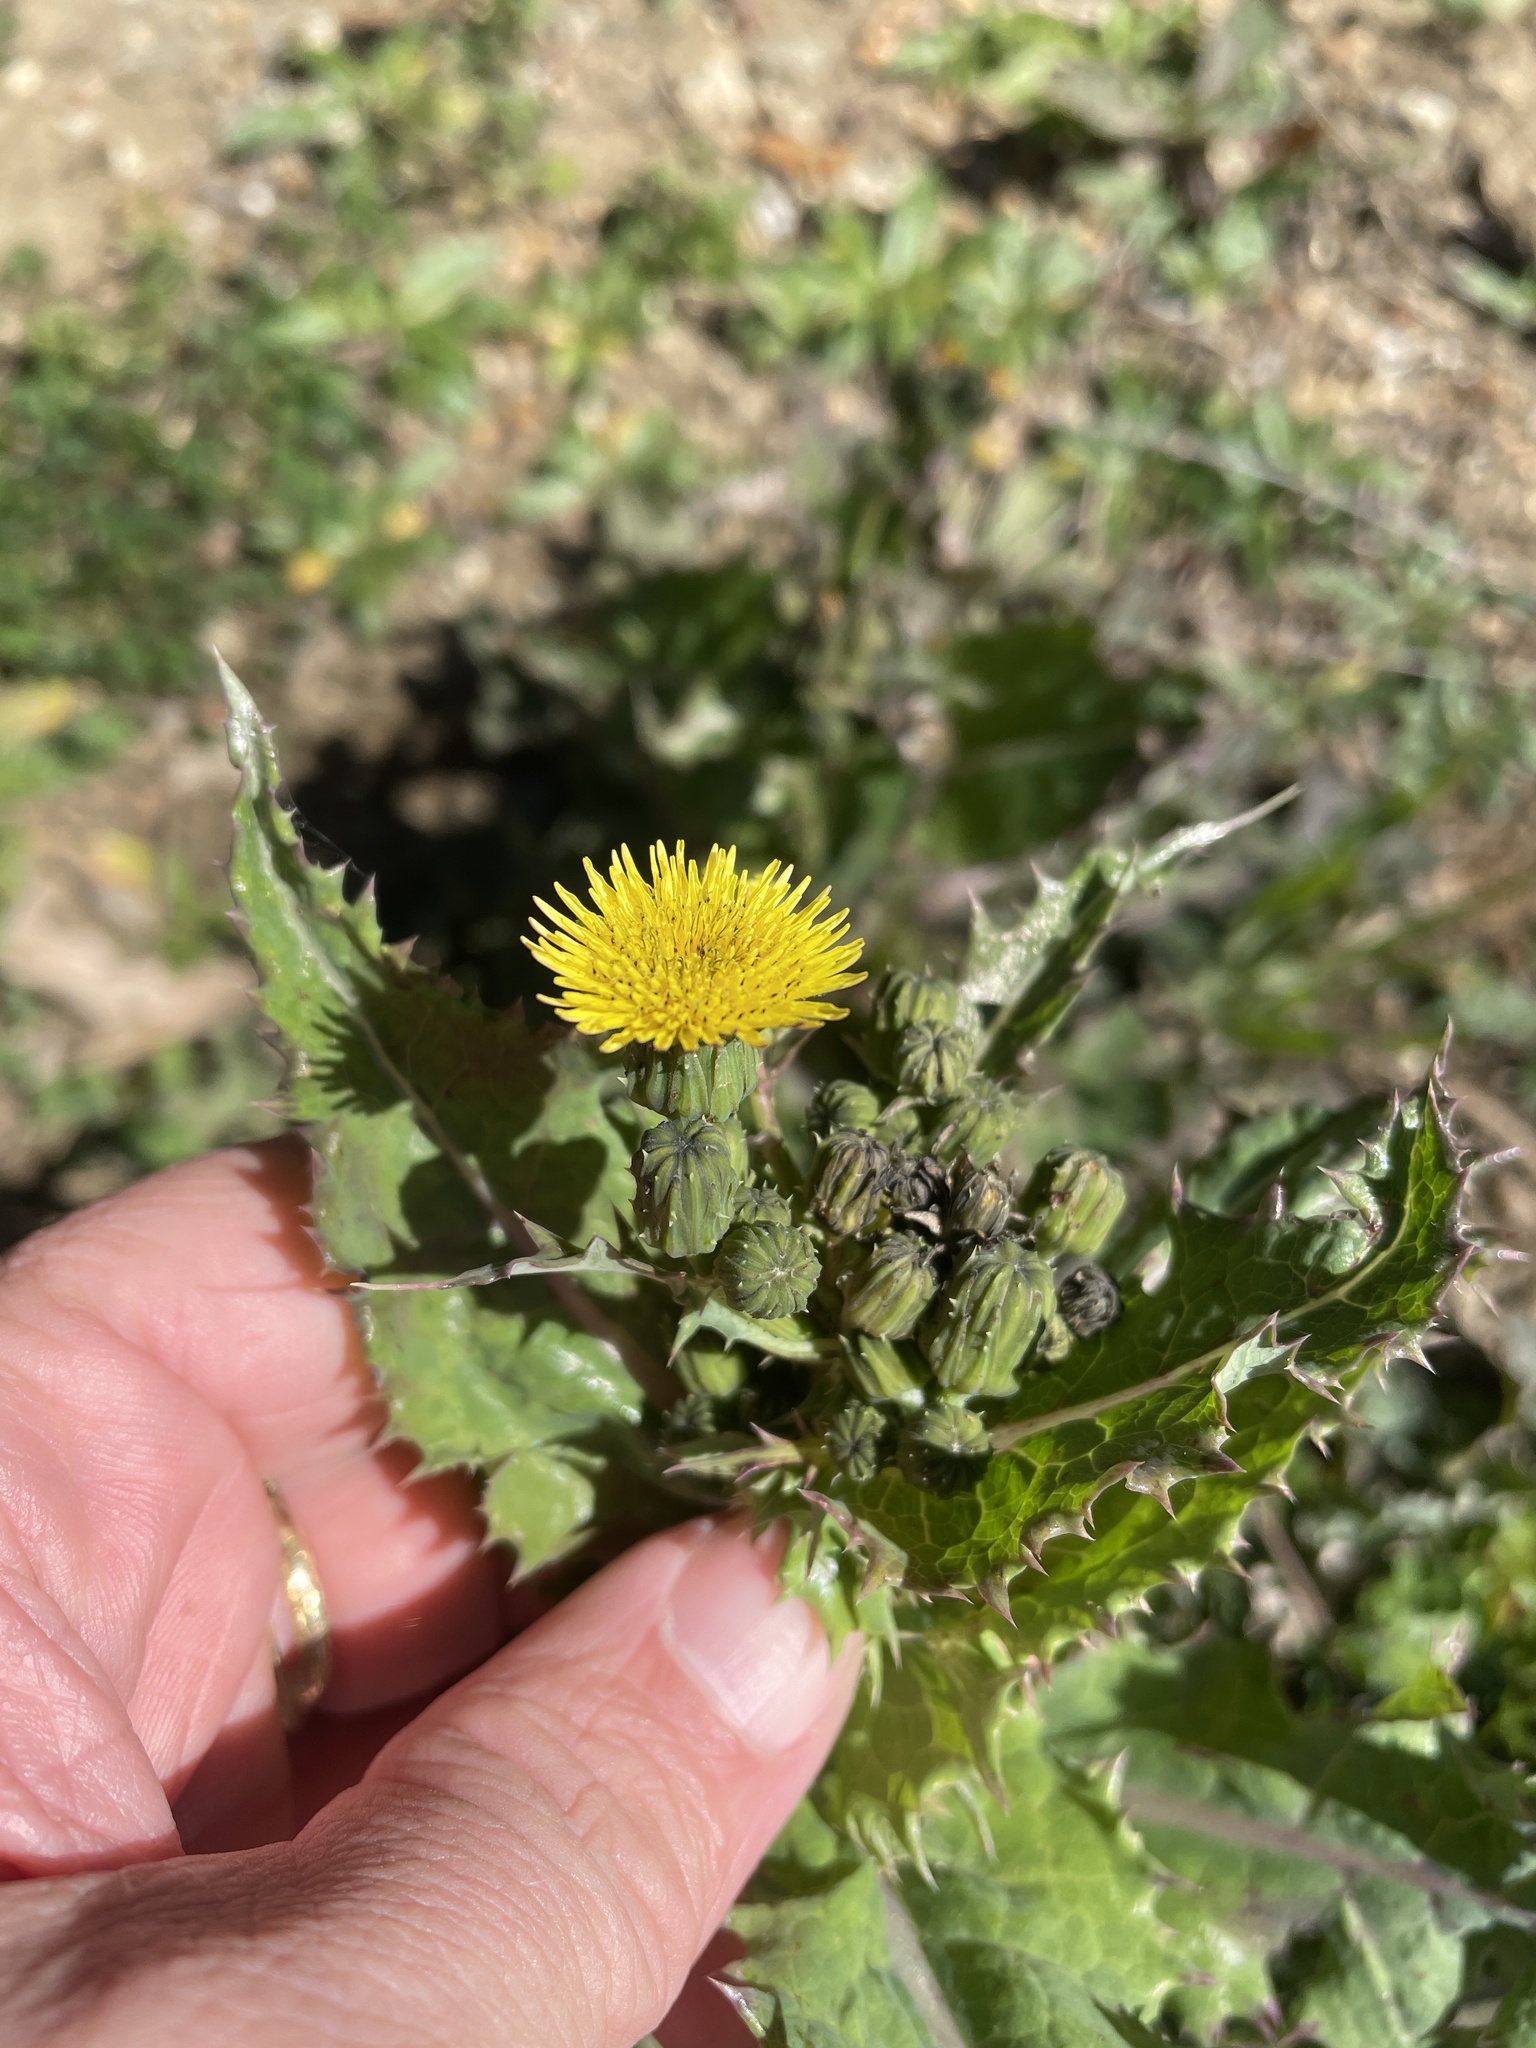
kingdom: Plantae
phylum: Tracheophyta
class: Magnoliopsida
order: Asterales
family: Asteraceae
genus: Sonchus
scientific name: Sonchus asper
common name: Prickly sow-thistle
